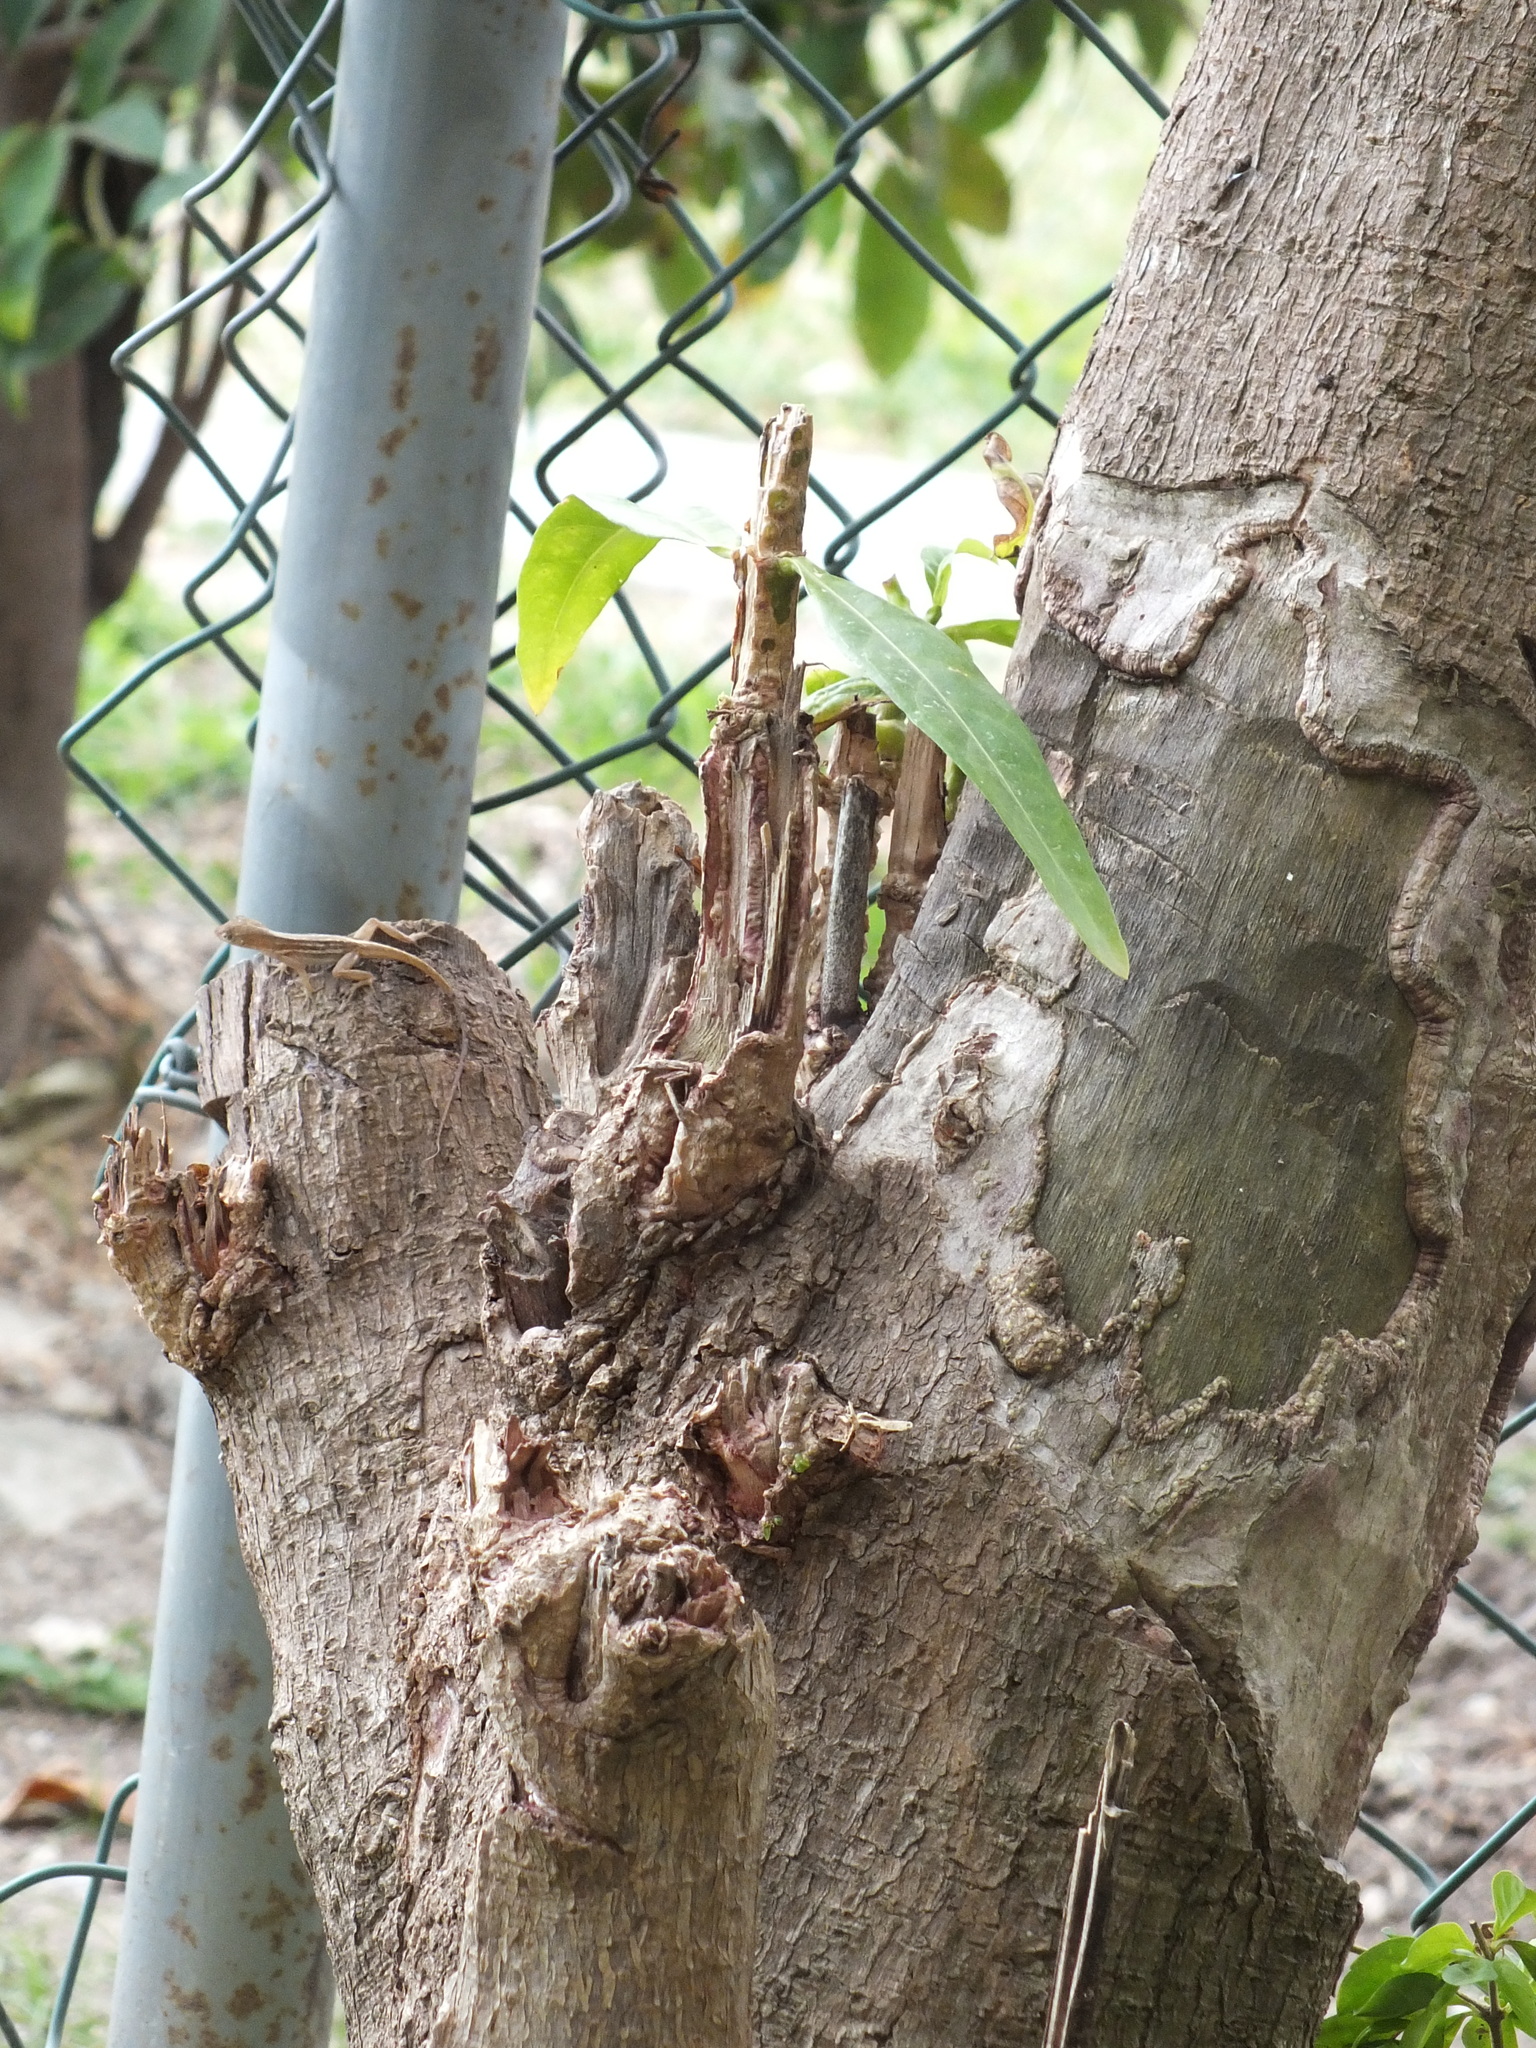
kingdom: Animalia
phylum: Chordata
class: Squamata
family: Dactyloidae
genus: Anolis
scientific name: Anolis sagrei
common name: Brown anole
